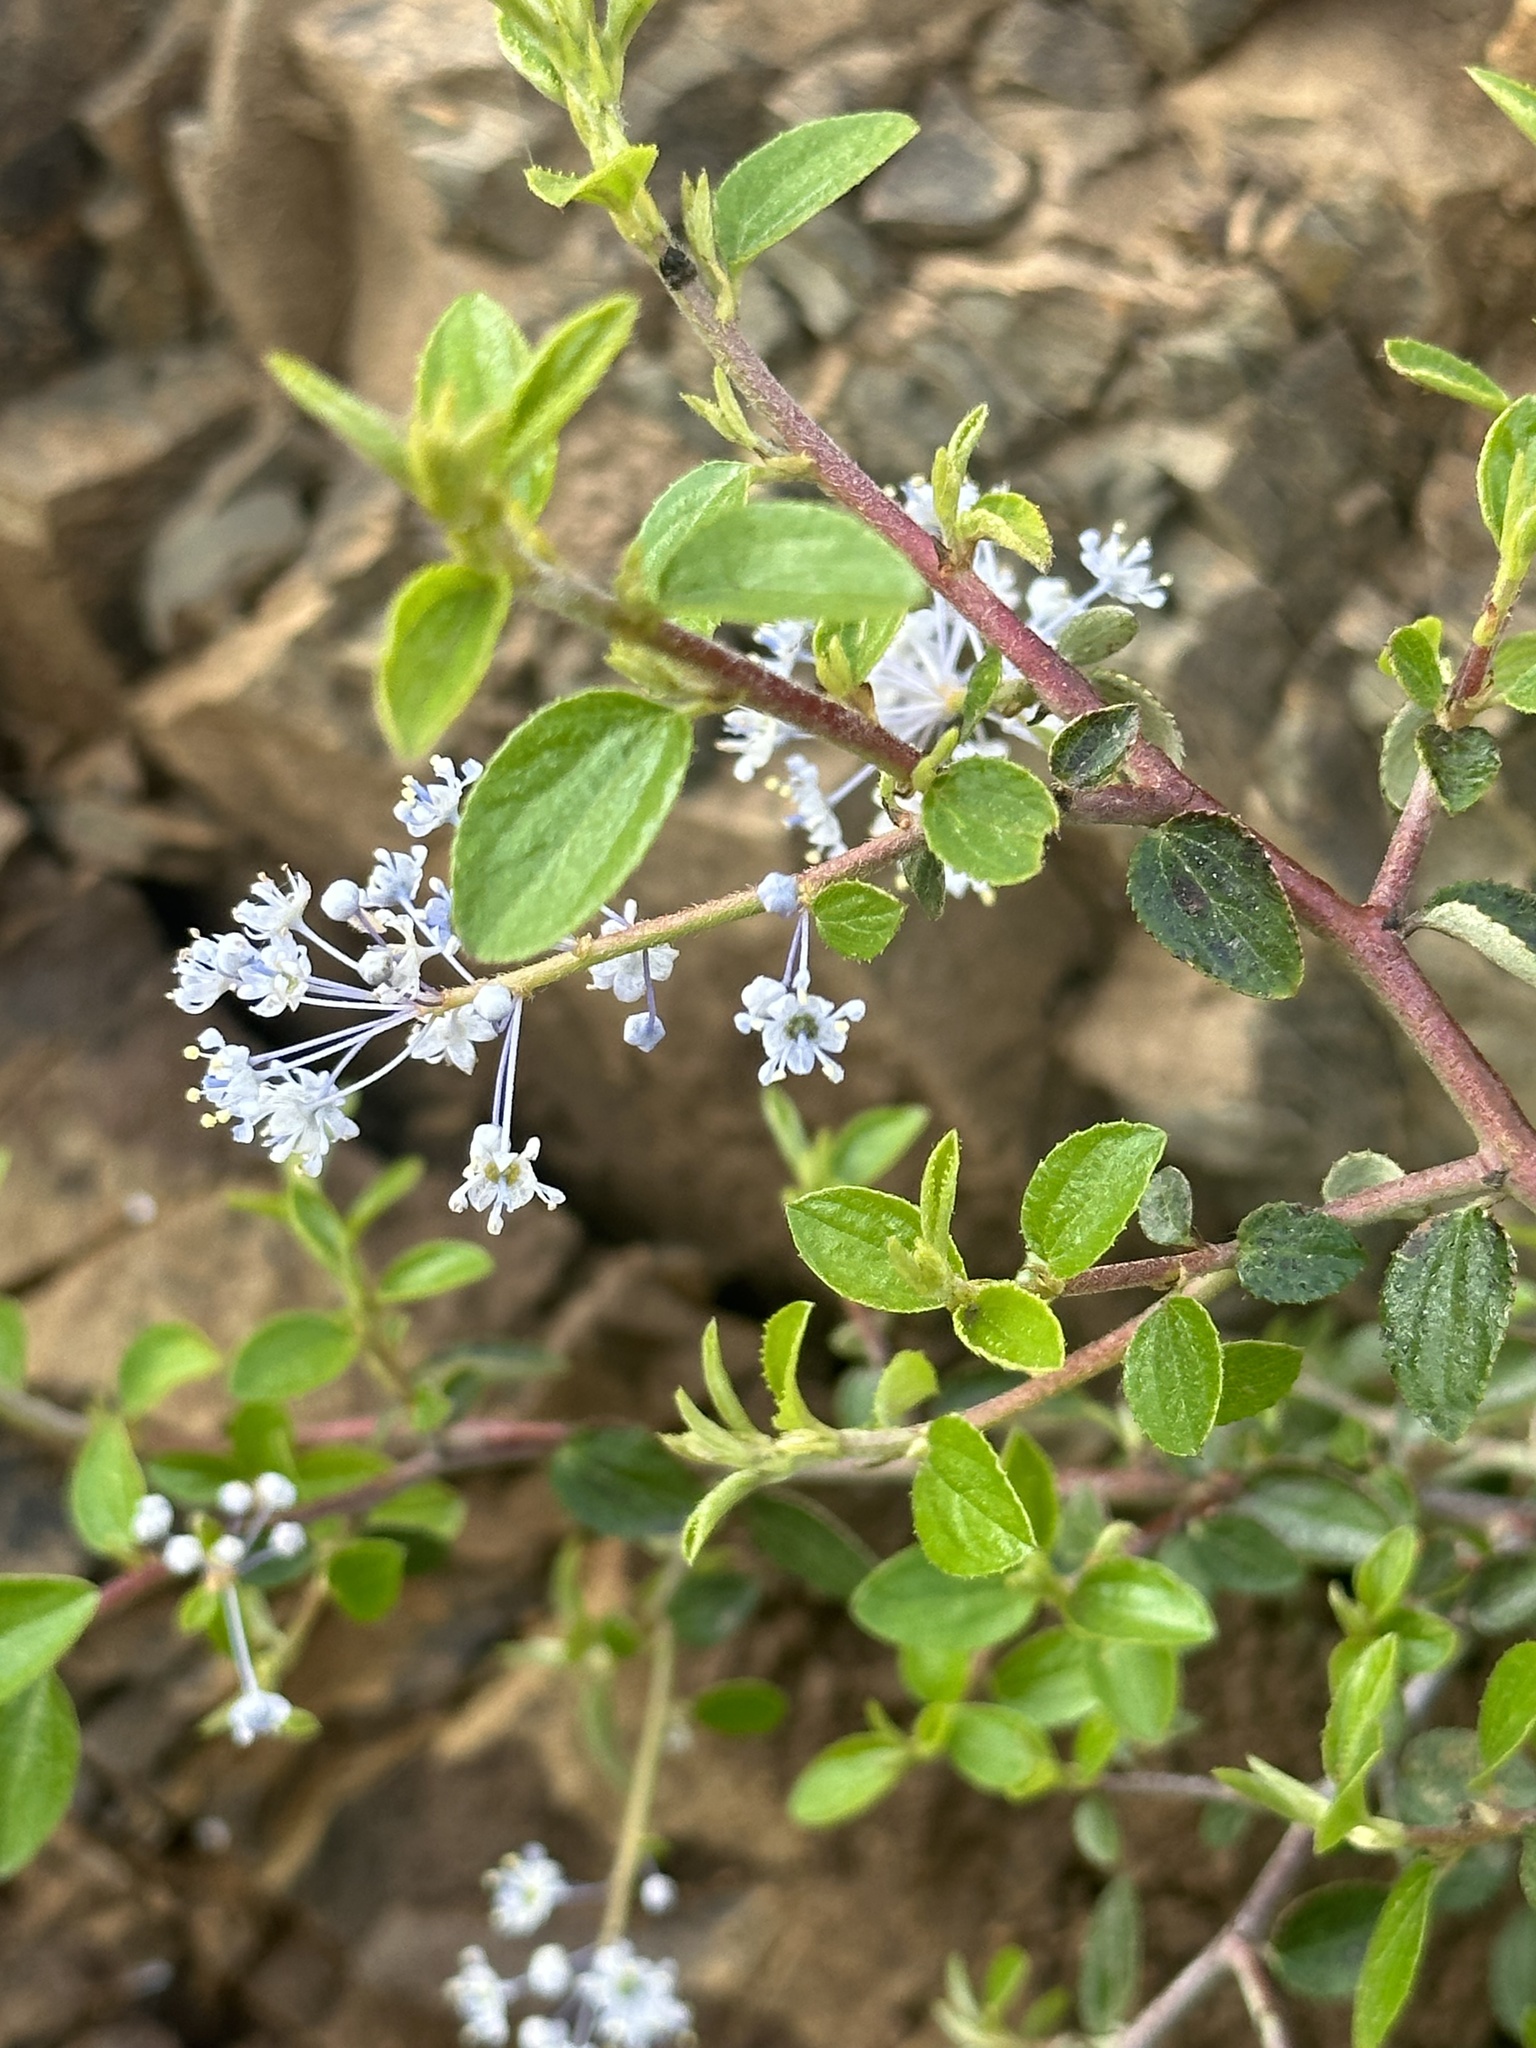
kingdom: Plantae
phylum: Tracheophyta
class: Magnoliopsida
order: Rosales
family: Rhamnaceae
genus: Ceanothus
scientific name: Ceanothus oliganthus
